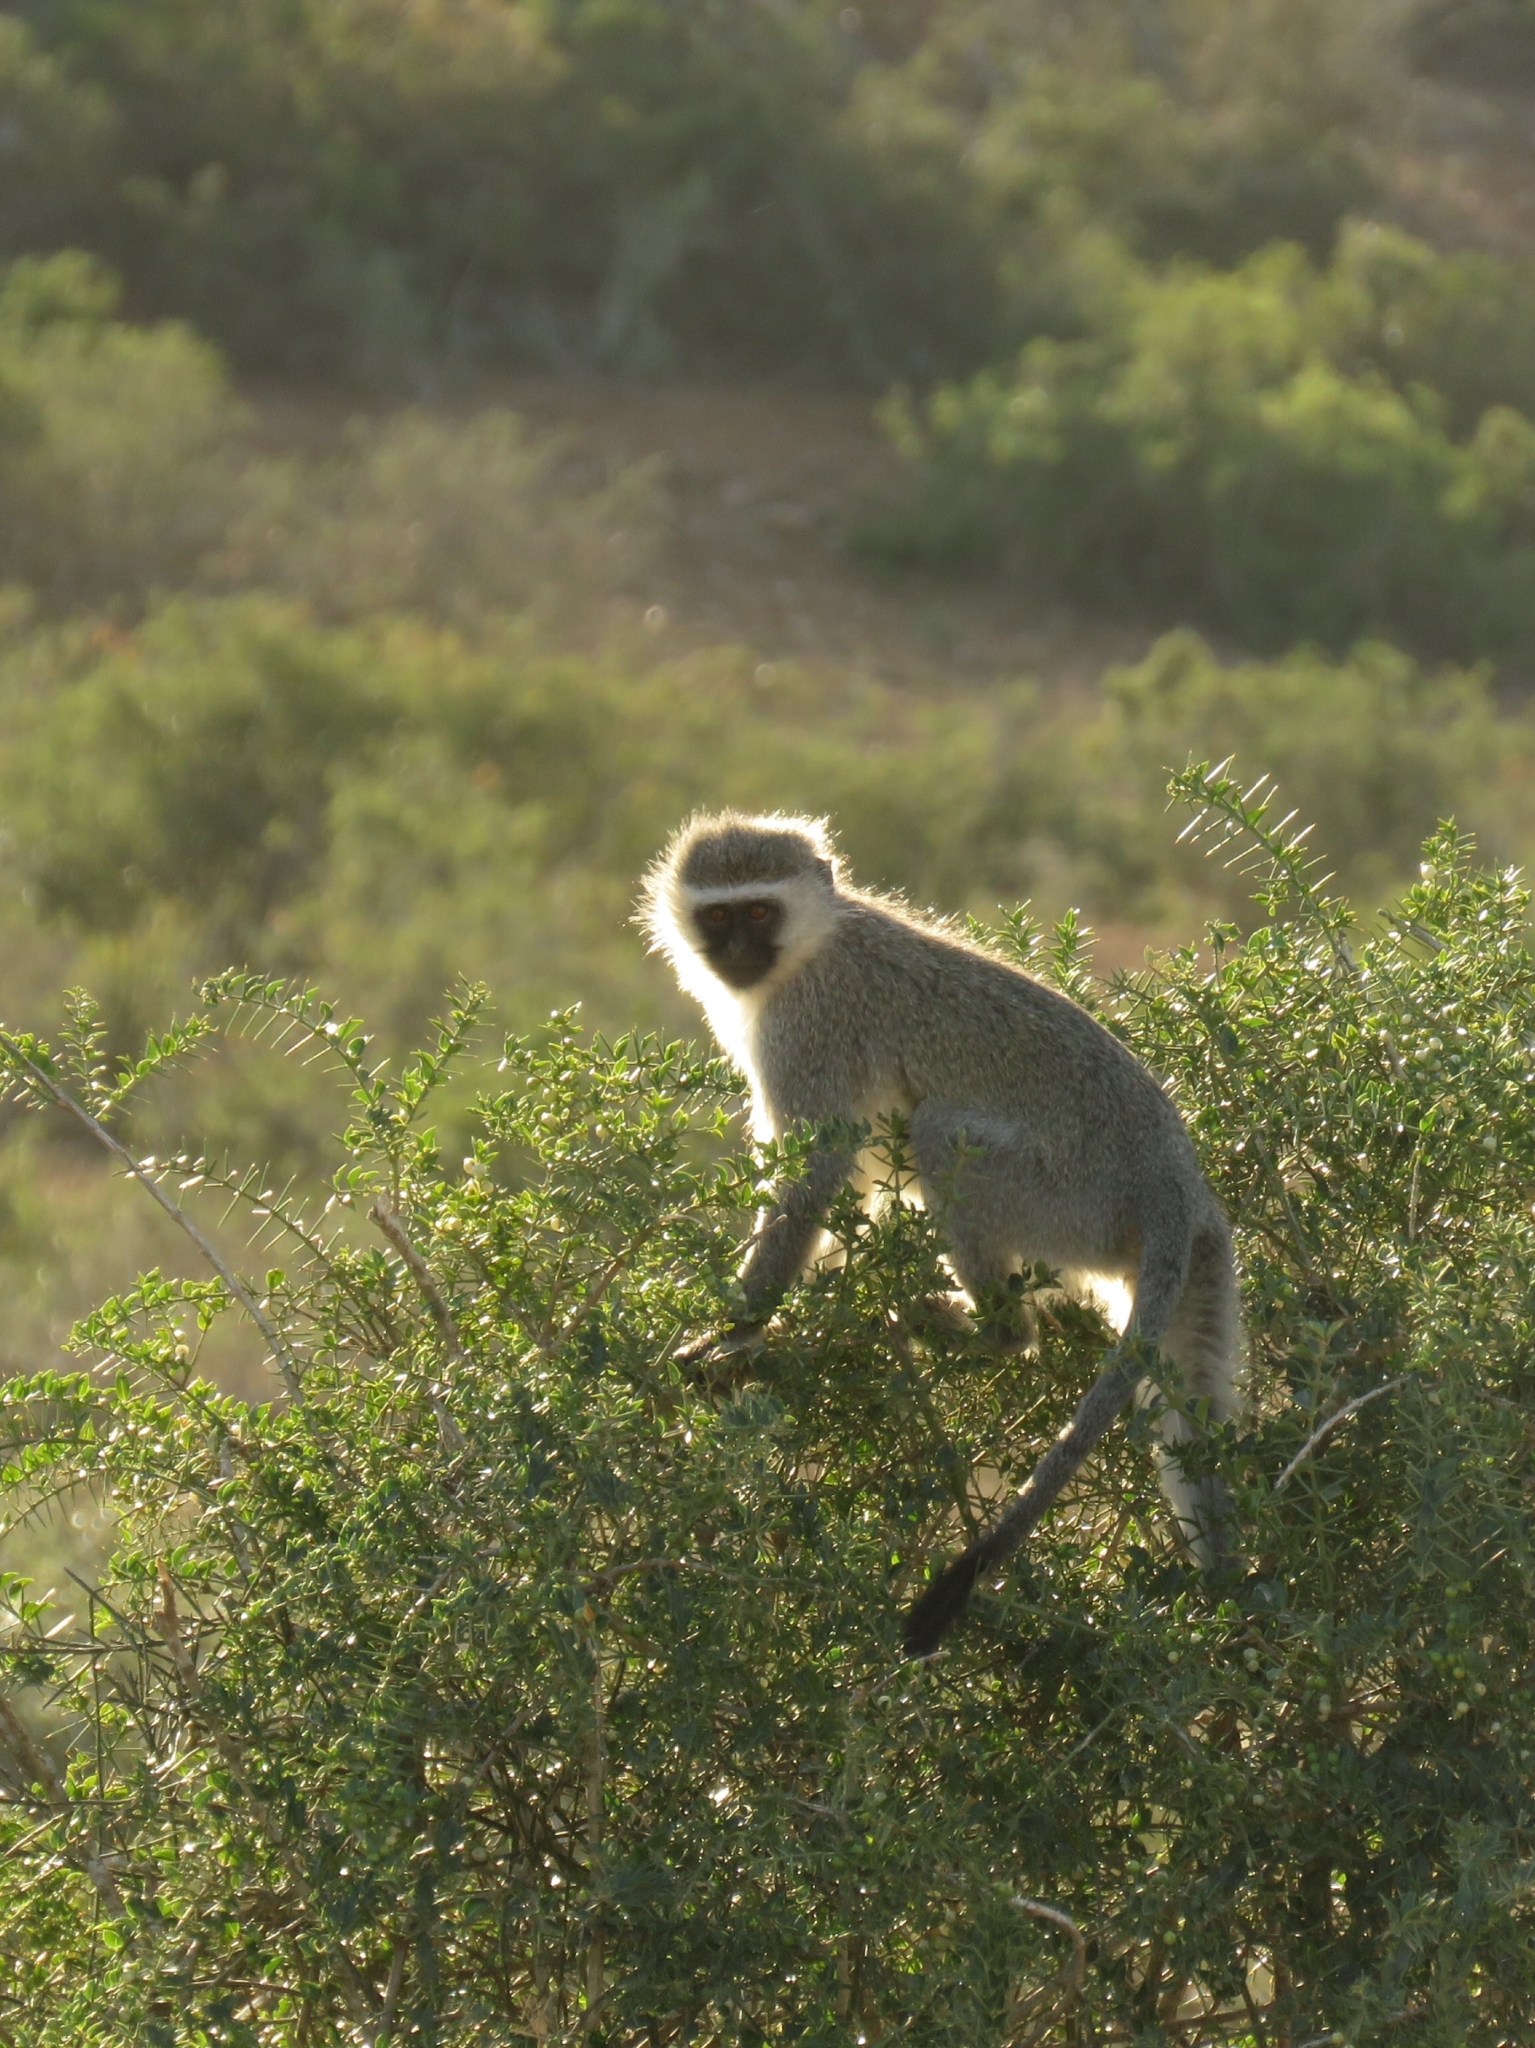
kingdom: Animalia
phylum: Chordata
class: Mammalia
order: Primates
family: Cercopithecidae
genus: Chlorocebus
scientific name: Chlorocebus pygerythrus
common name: Vervet monkey
